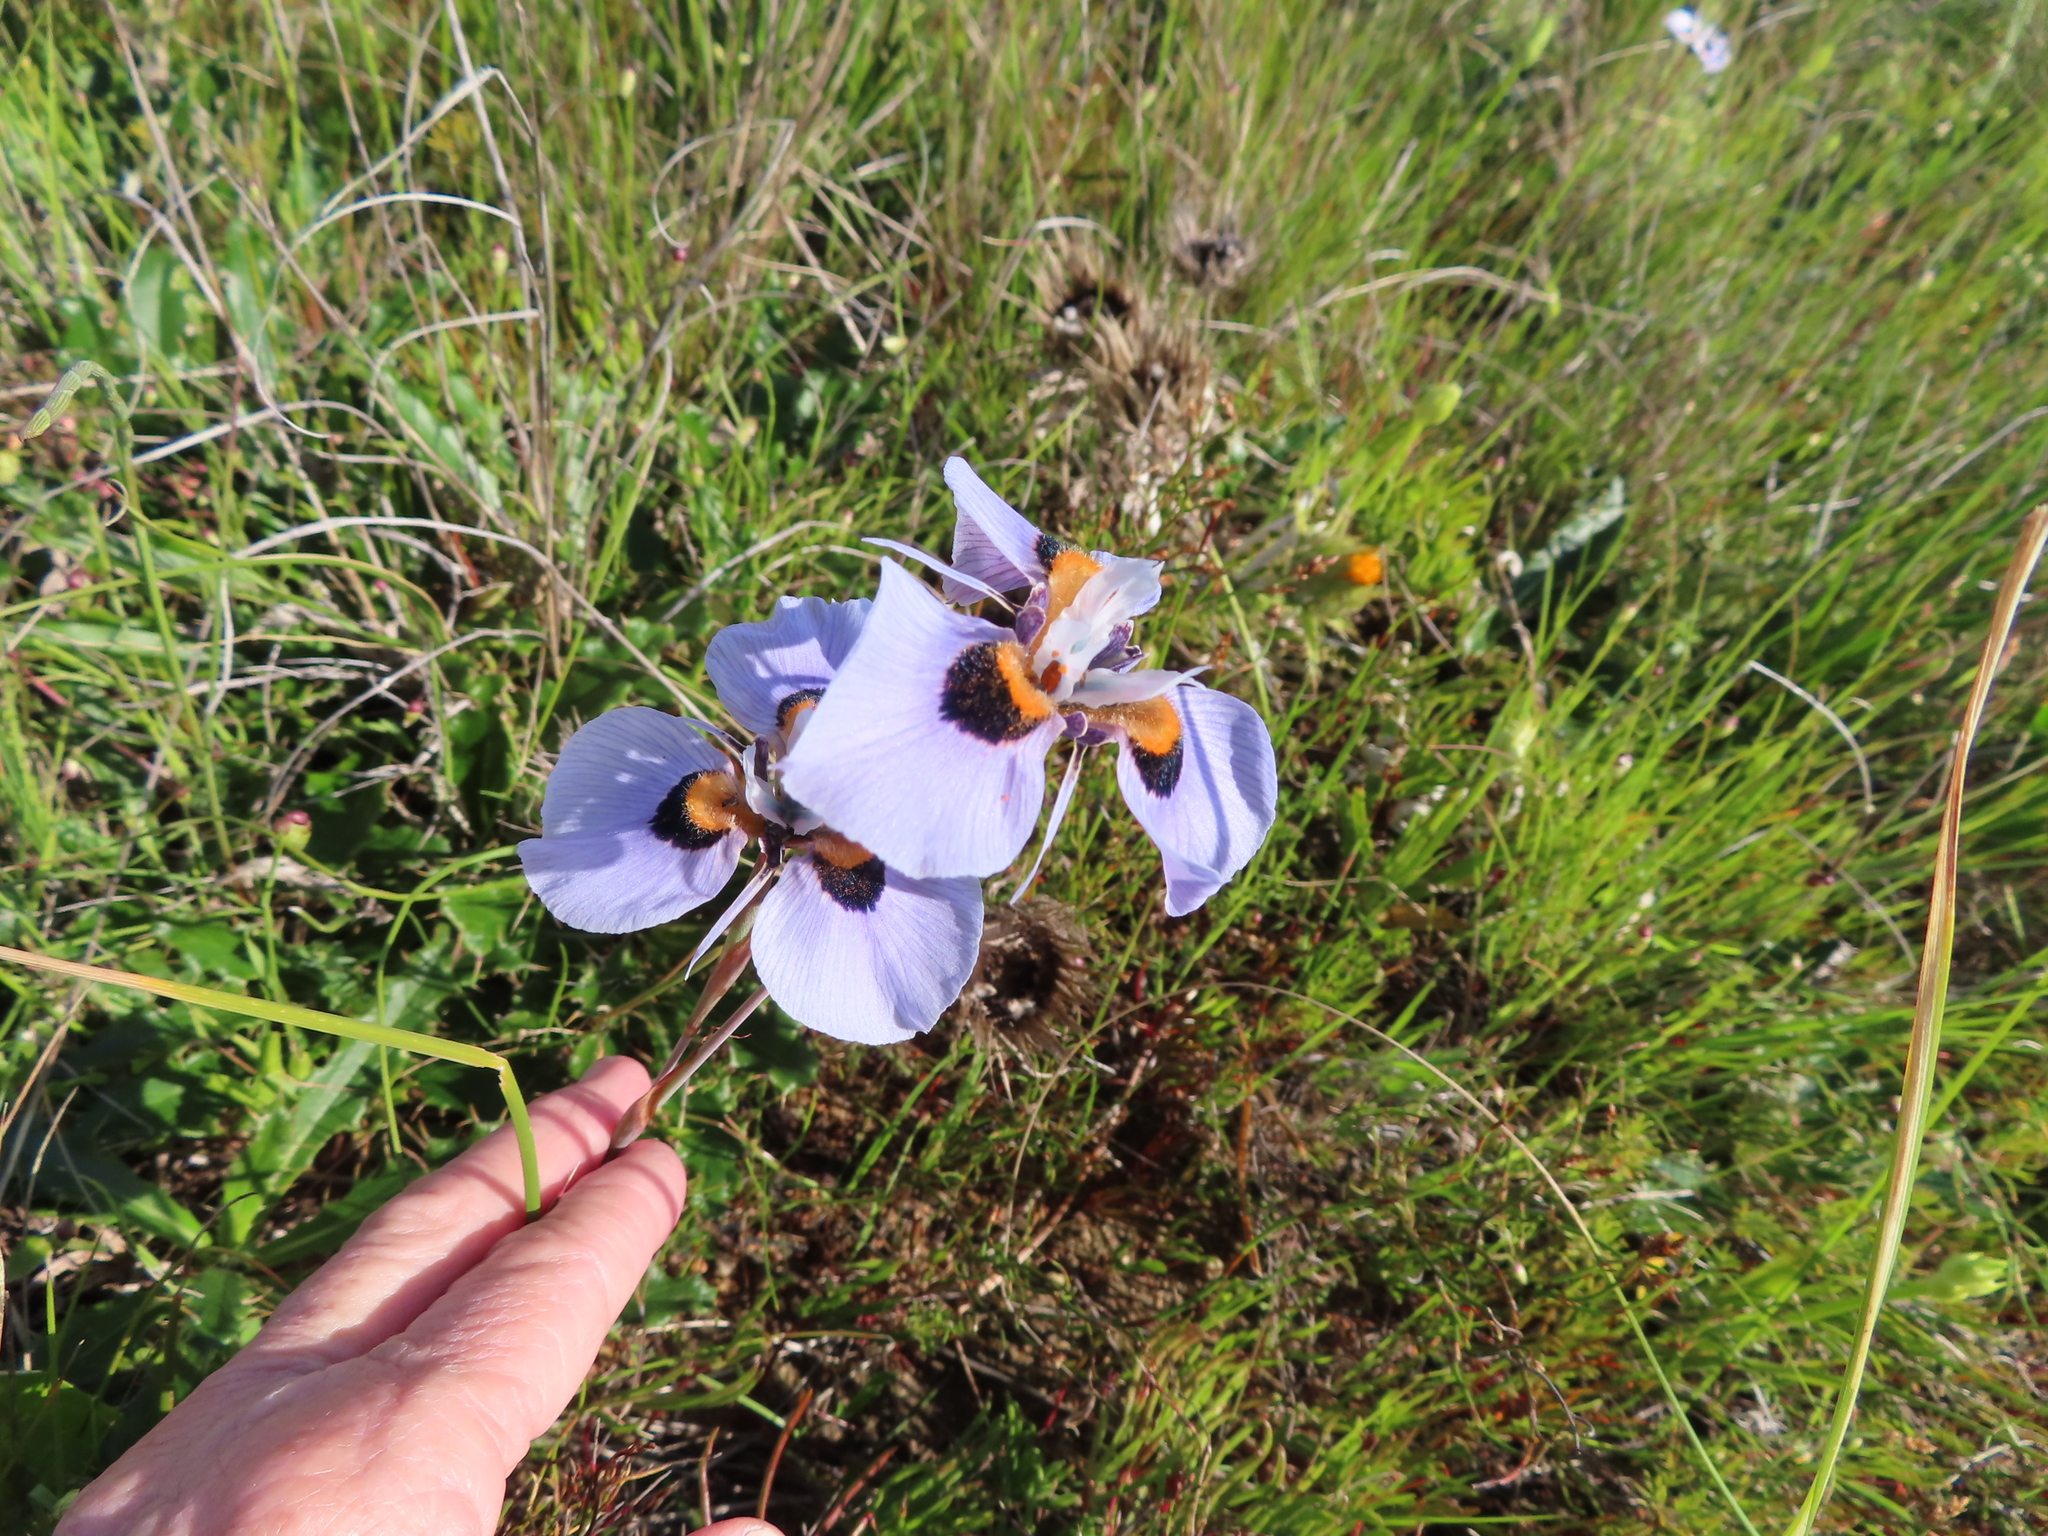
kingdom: Plantae
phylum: Tracheophyta
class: Liliopsida
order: Asparagales
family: Iridaceae
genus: Moraea
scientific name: Moraea villosa
